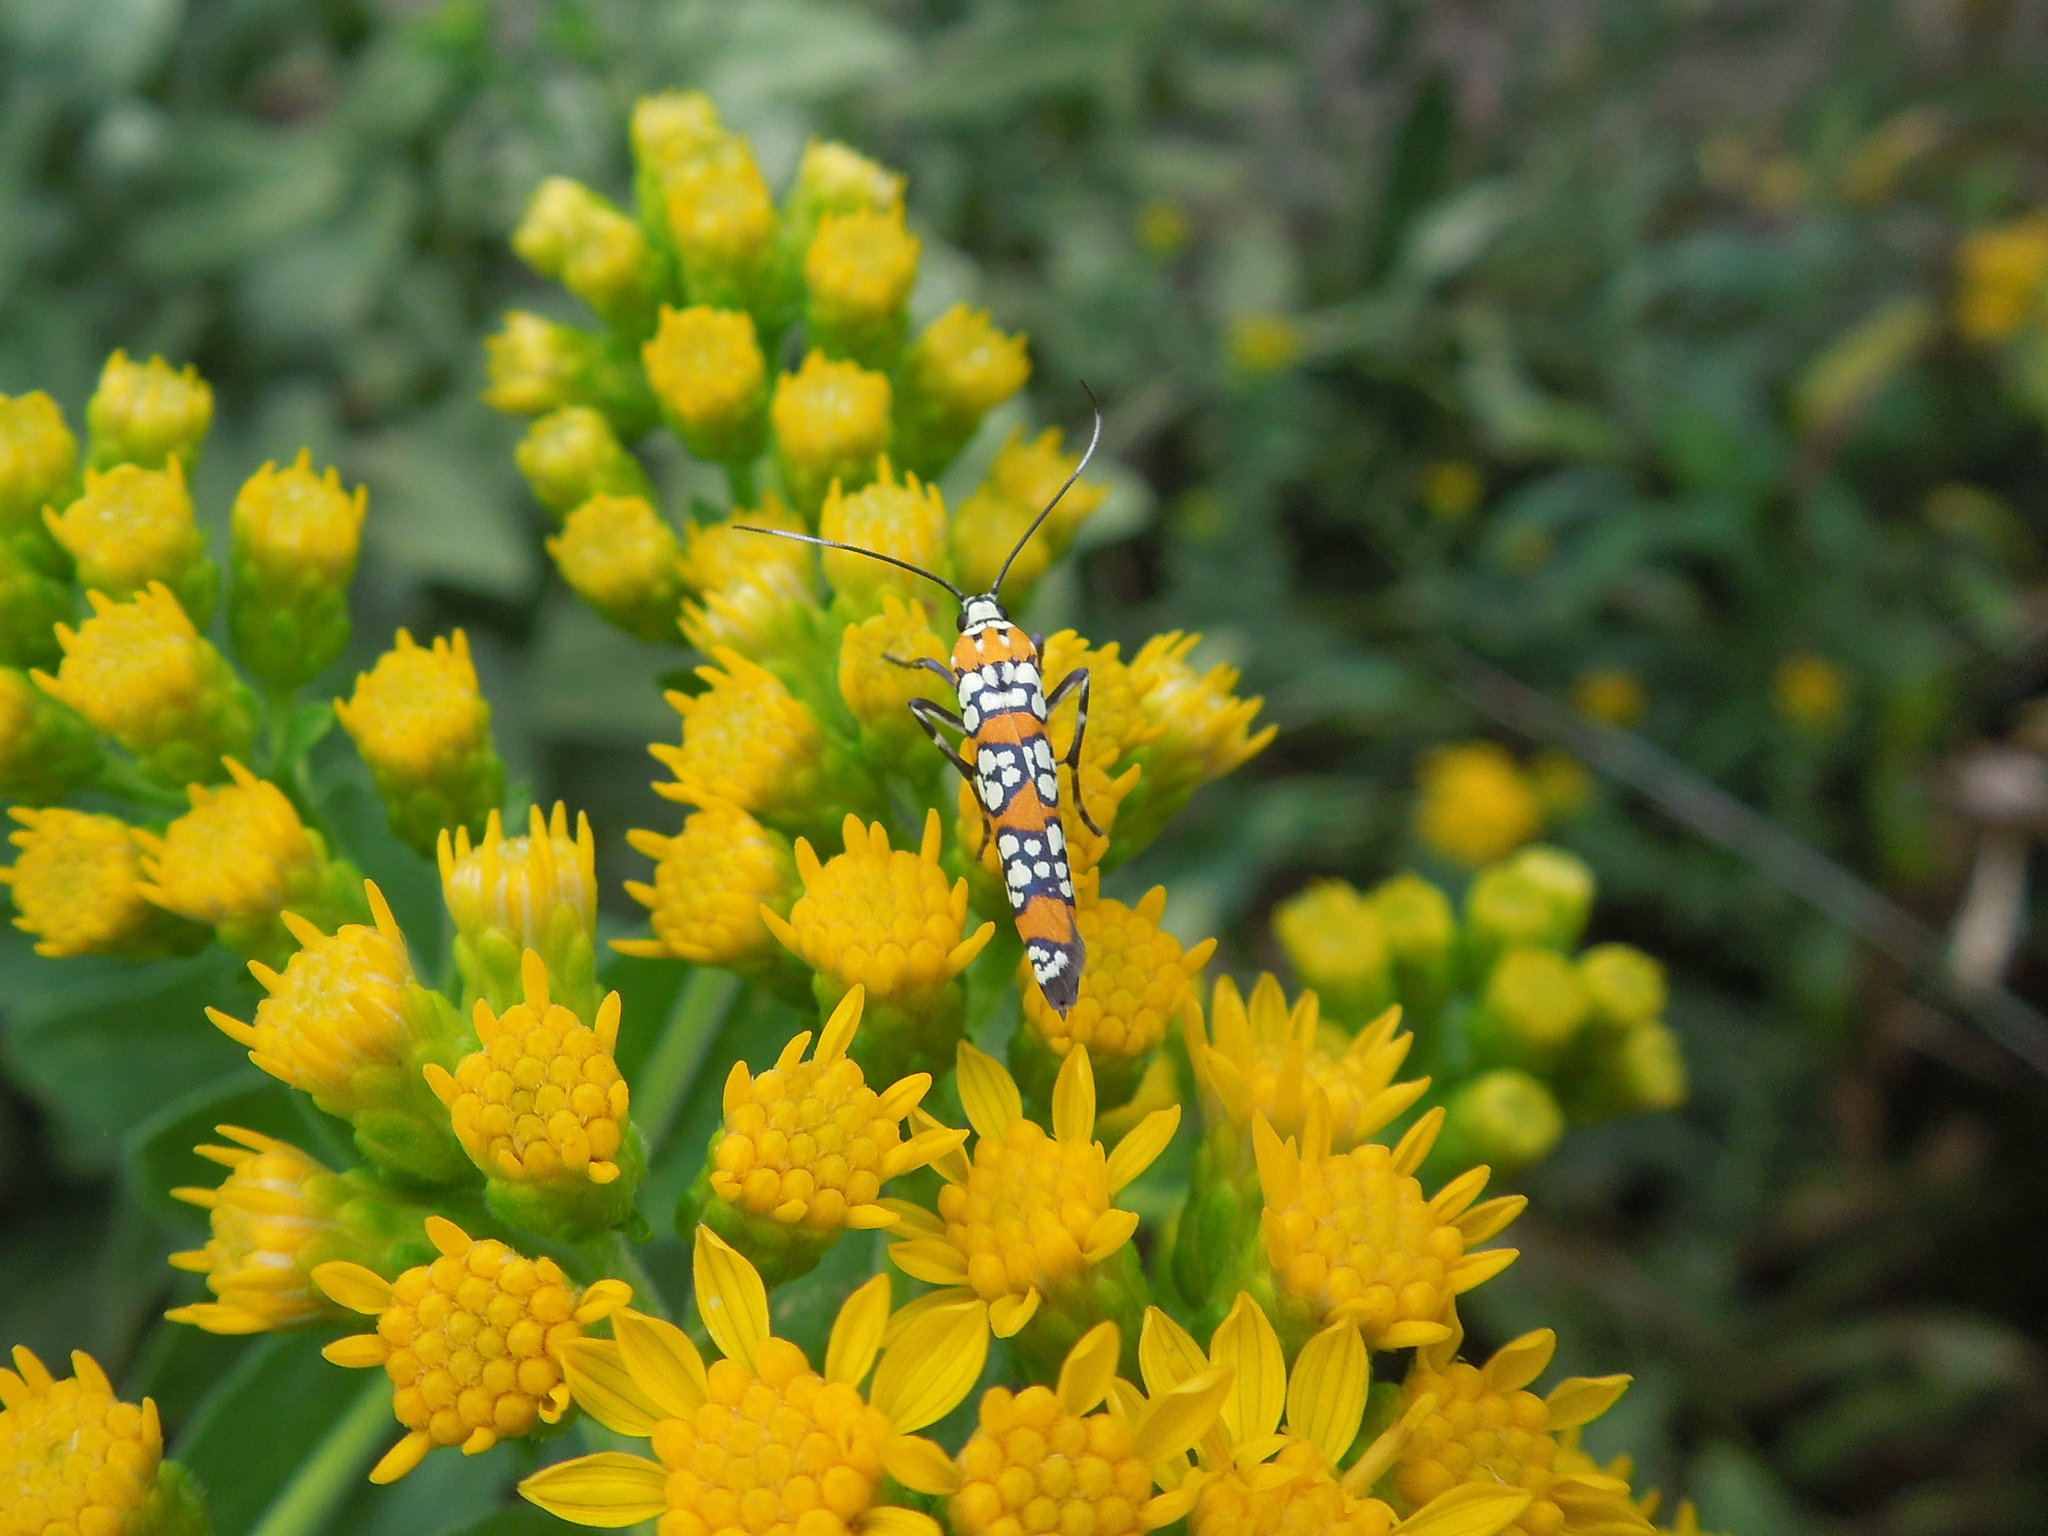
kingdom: Animalia
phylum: Arthropoda
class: Insecta
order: Lepidoptera
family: Attevidae
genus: Atteva
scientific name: Atteva punctella
